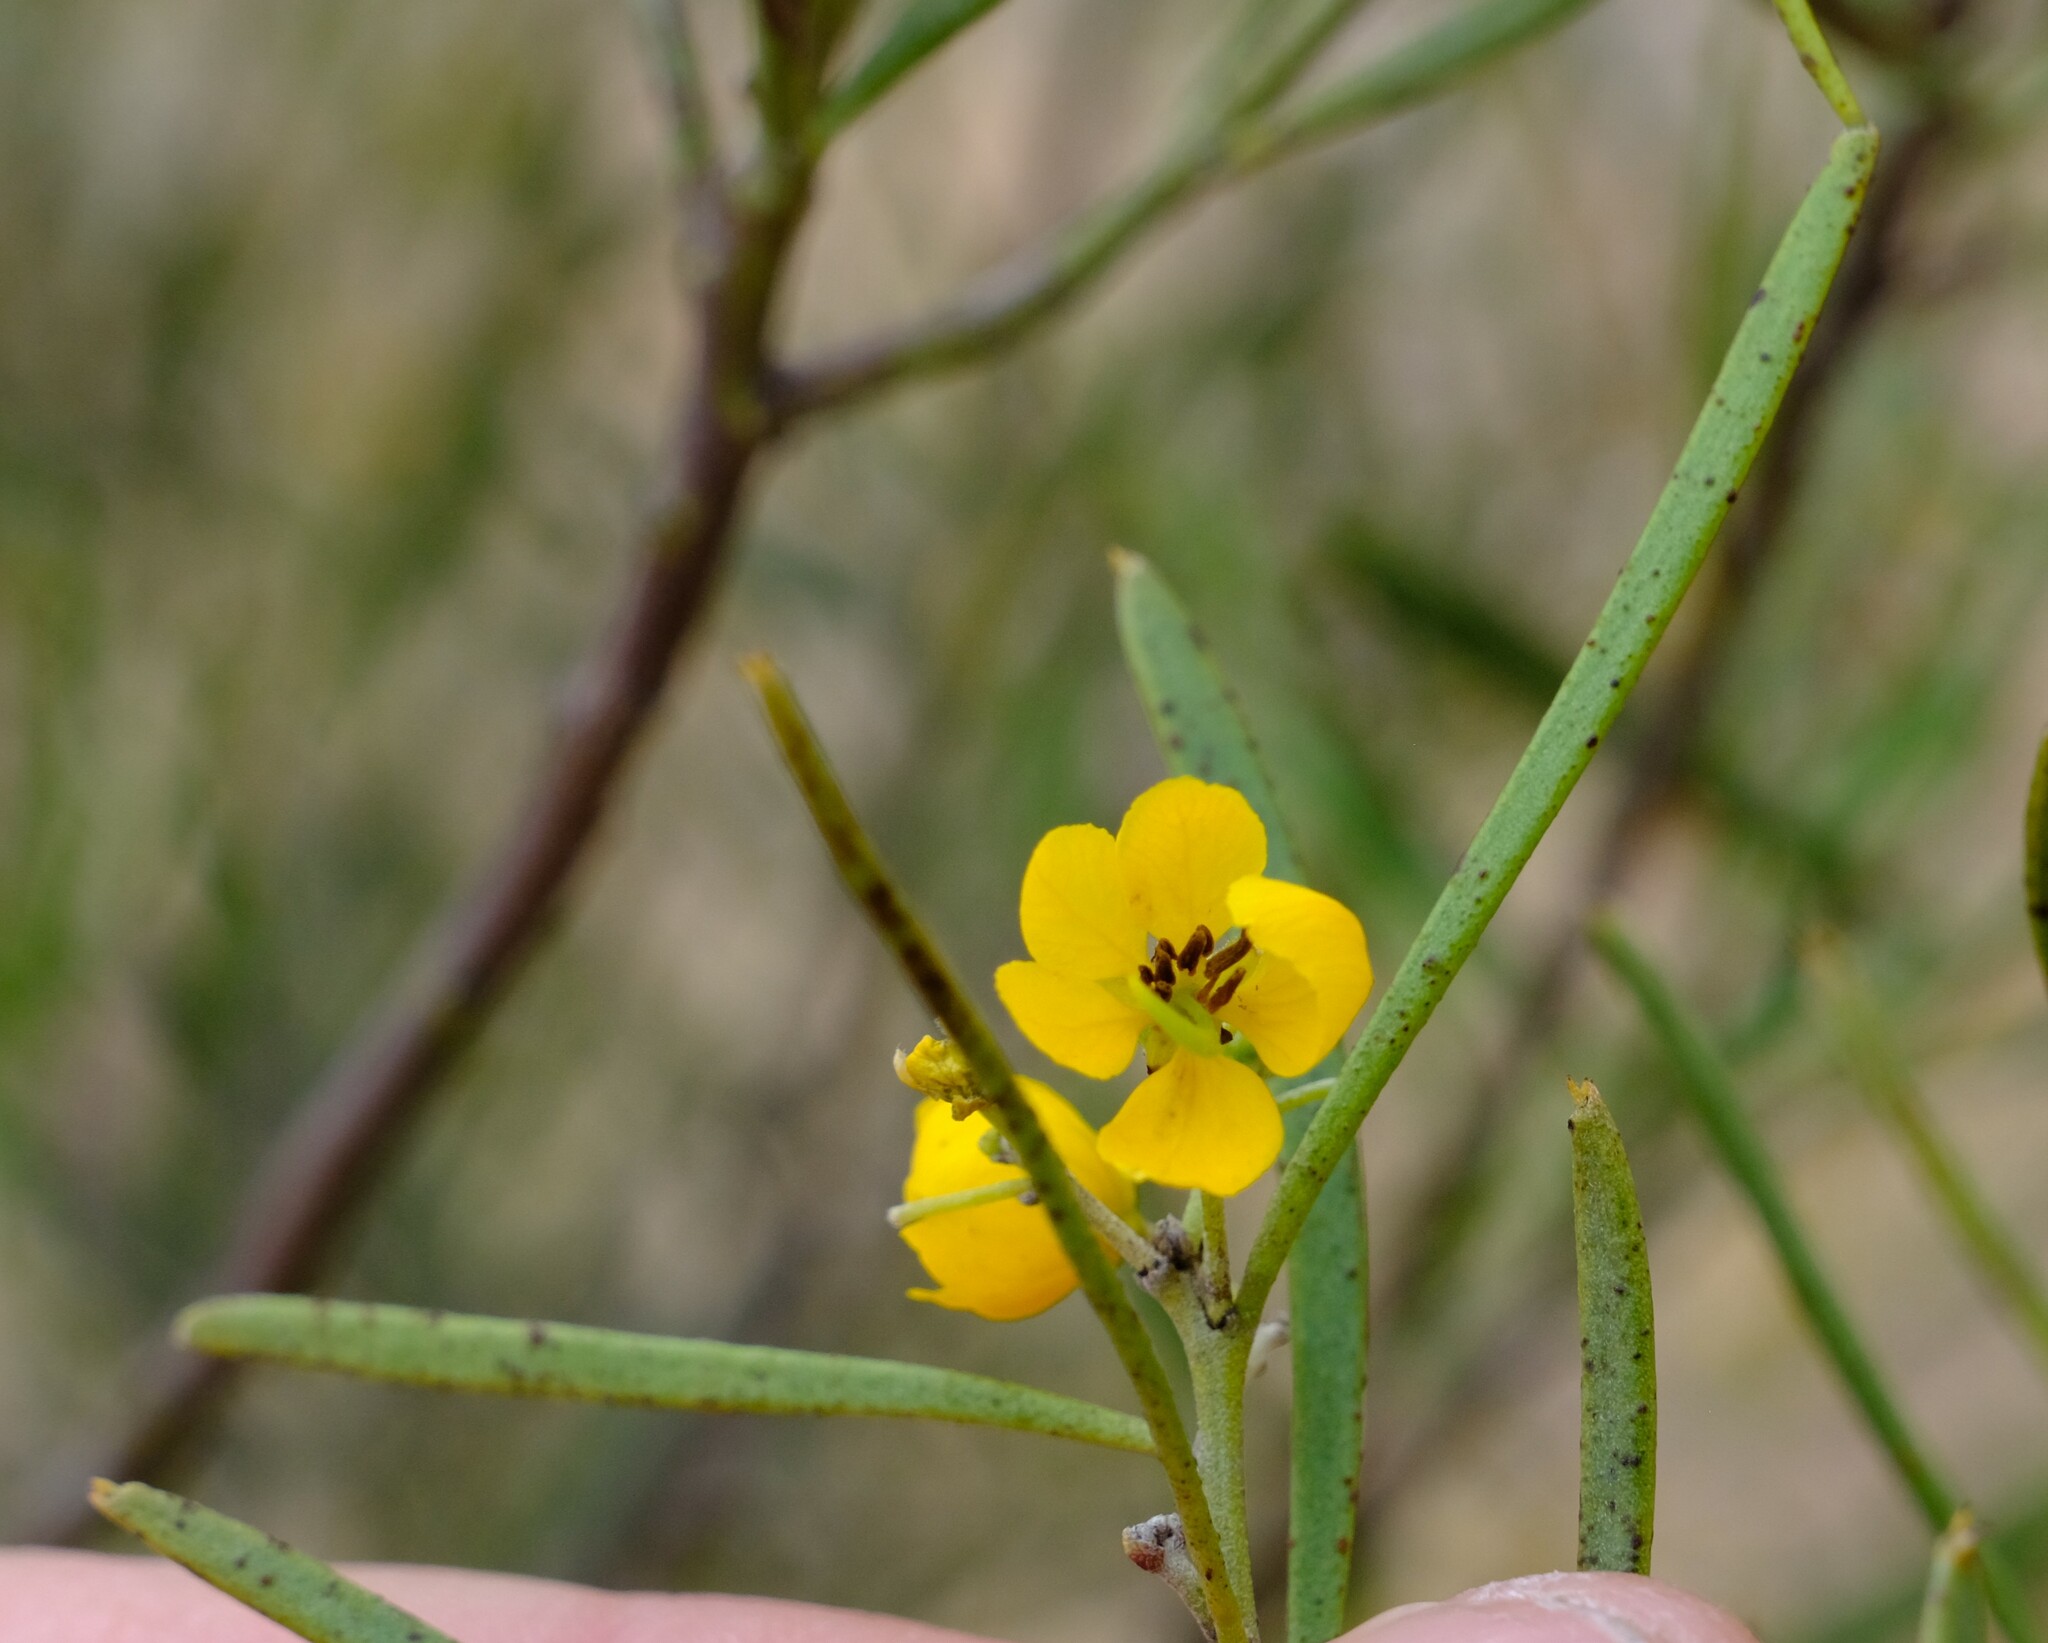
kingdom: Plantae
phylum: Tracheophyta
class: Magnoliopsida
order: Fabales
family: Fabaceae
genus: Senna
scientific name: Senna artemisioides
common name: Burnt-leaved acacia
